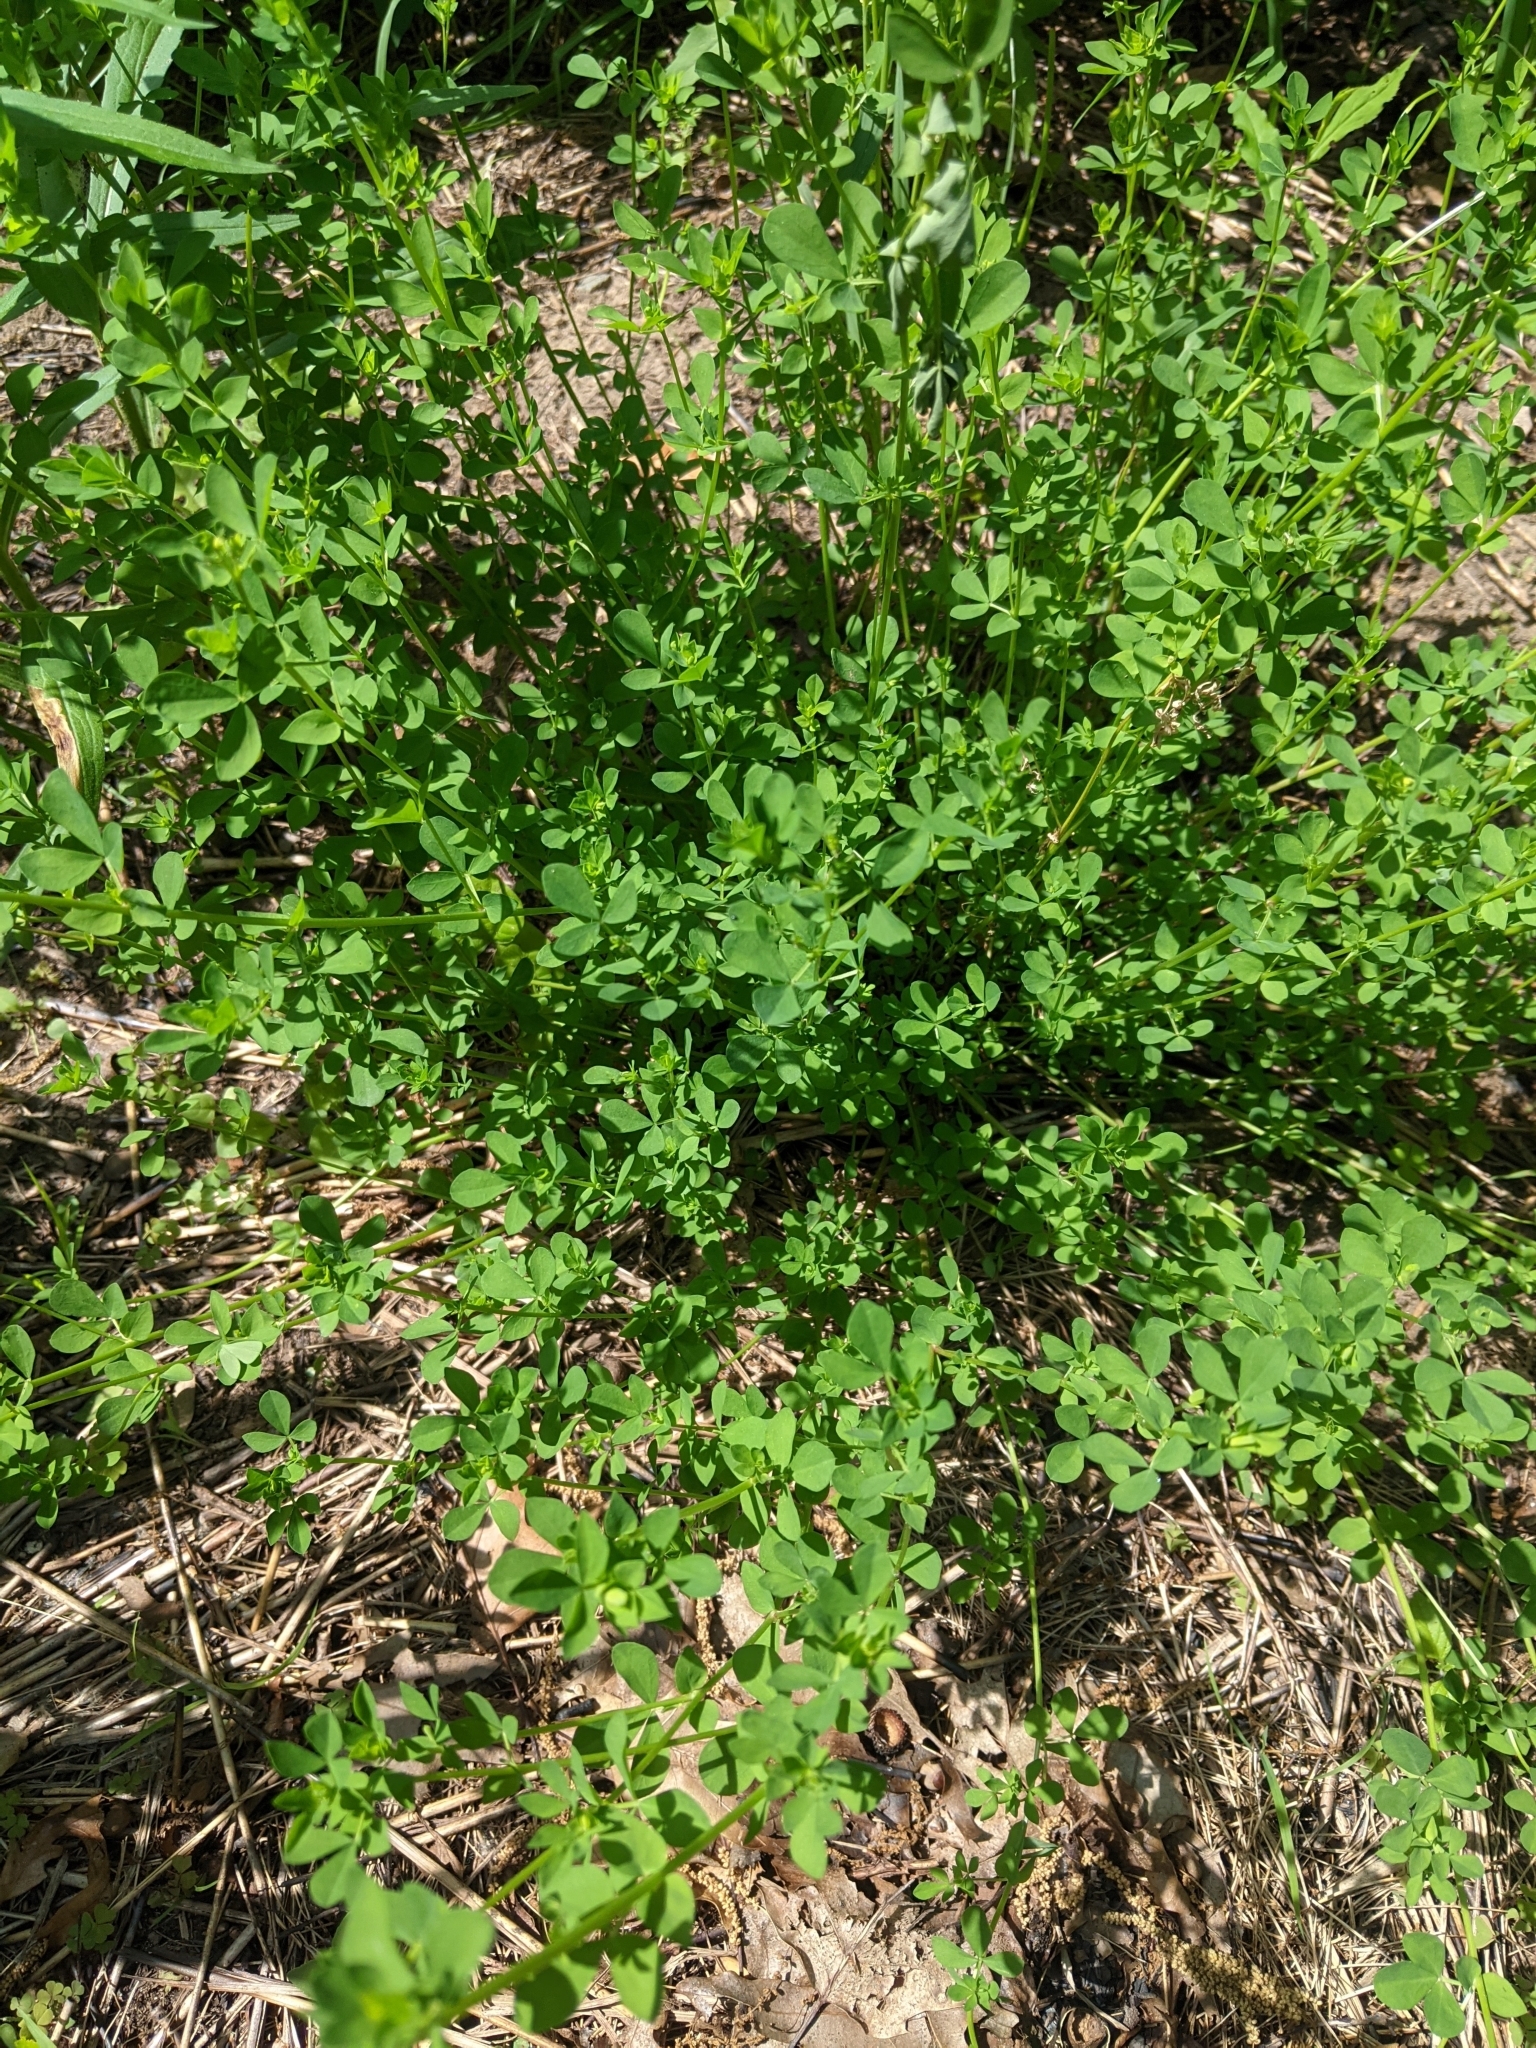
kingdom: Plantae
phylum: Tracheophyta
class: Magnoliopsida
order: Fabales
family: Fabaceae
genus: Melilotus
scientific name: Melilotus albus
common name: White melilot
